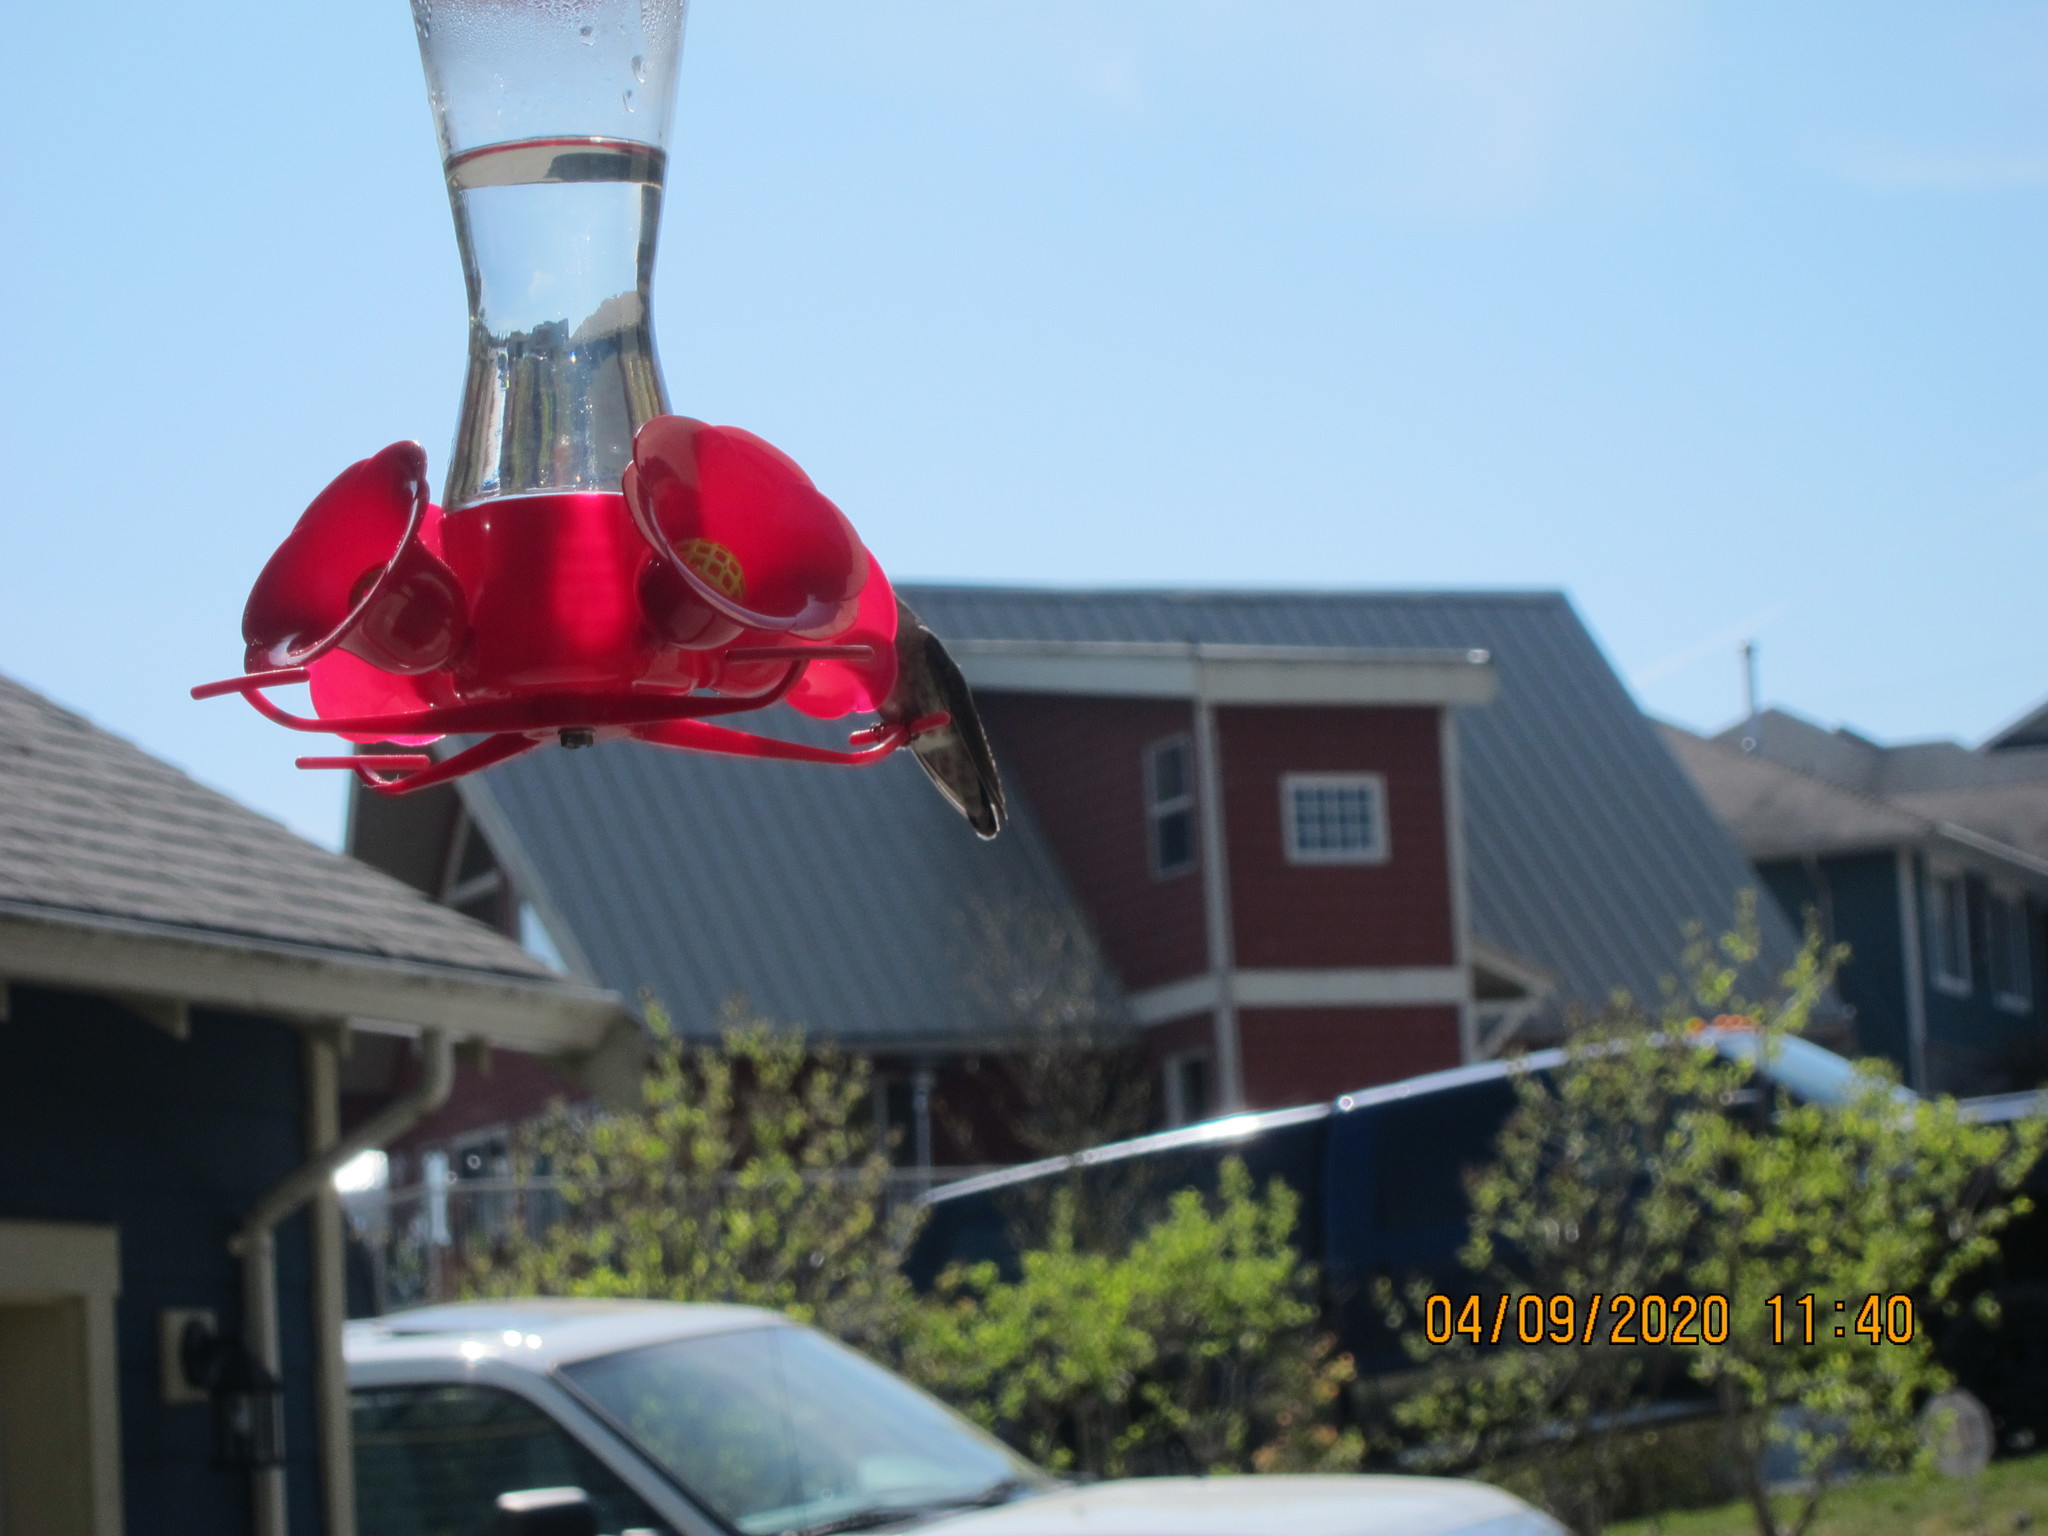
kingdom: Animalia
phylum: Chordata
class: Aves
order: Apodiformes
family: Trochilidae
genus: Calypte
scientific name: Calypte anna
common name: Anna's hummingbird
